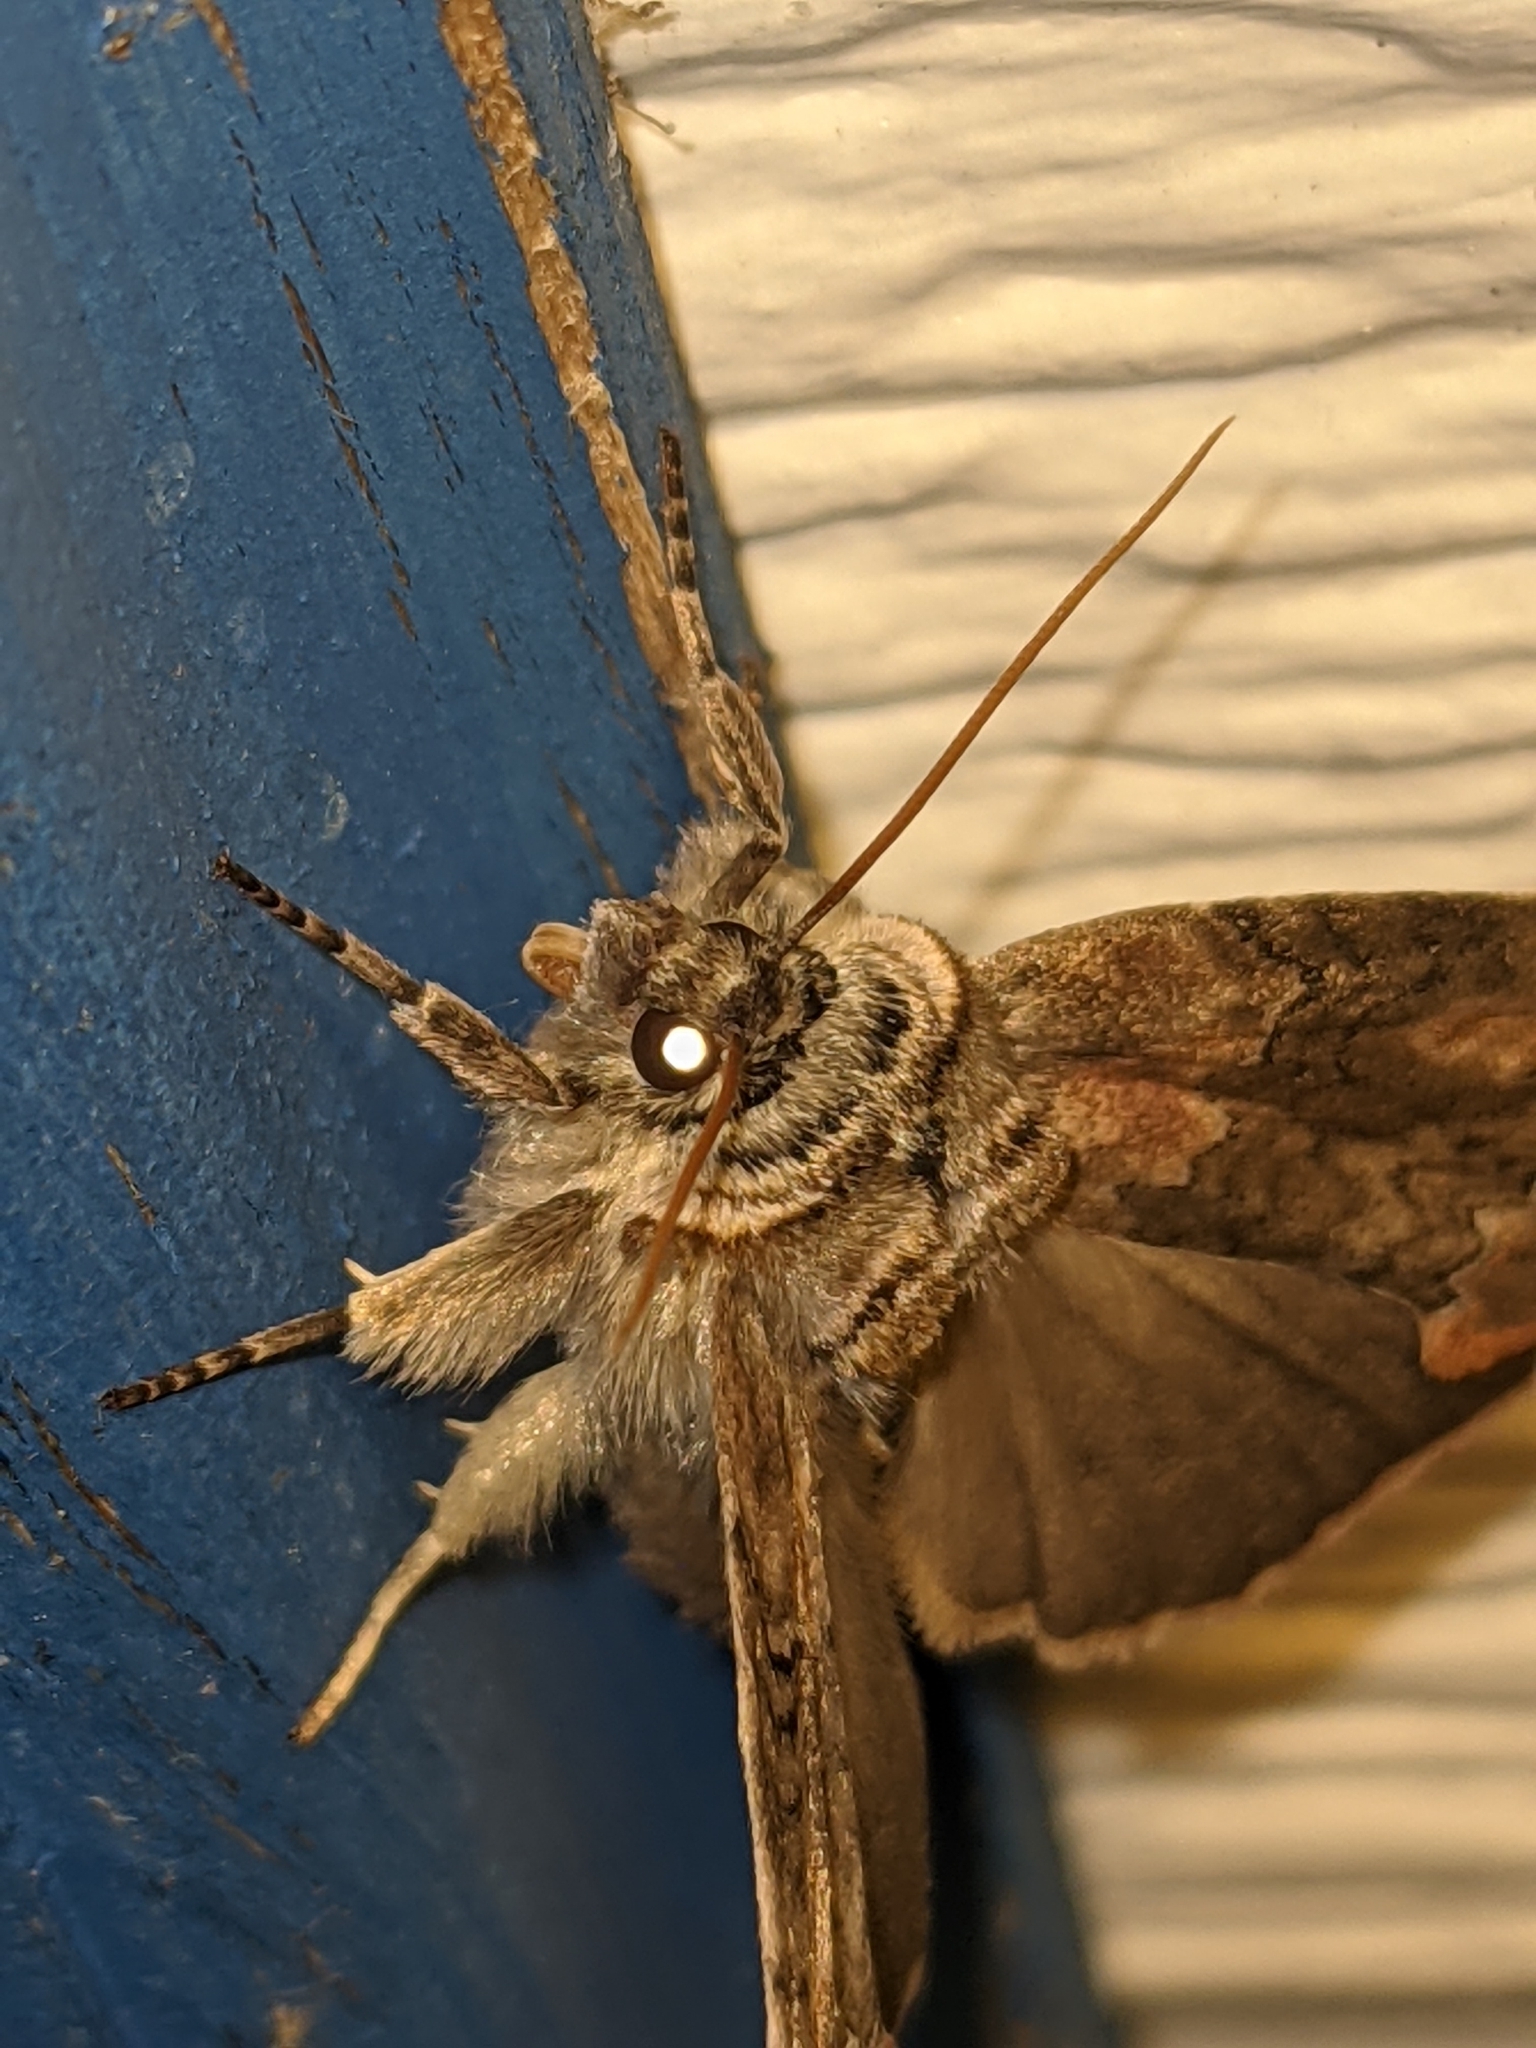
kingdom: Animalia
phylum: Arthropoda
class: Insecta
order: Lepidoptera
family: Drepanidae
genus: Pseudothyatira
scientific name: Pseudothyatira cymatophoroides
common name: Tufted thyatirid moth
